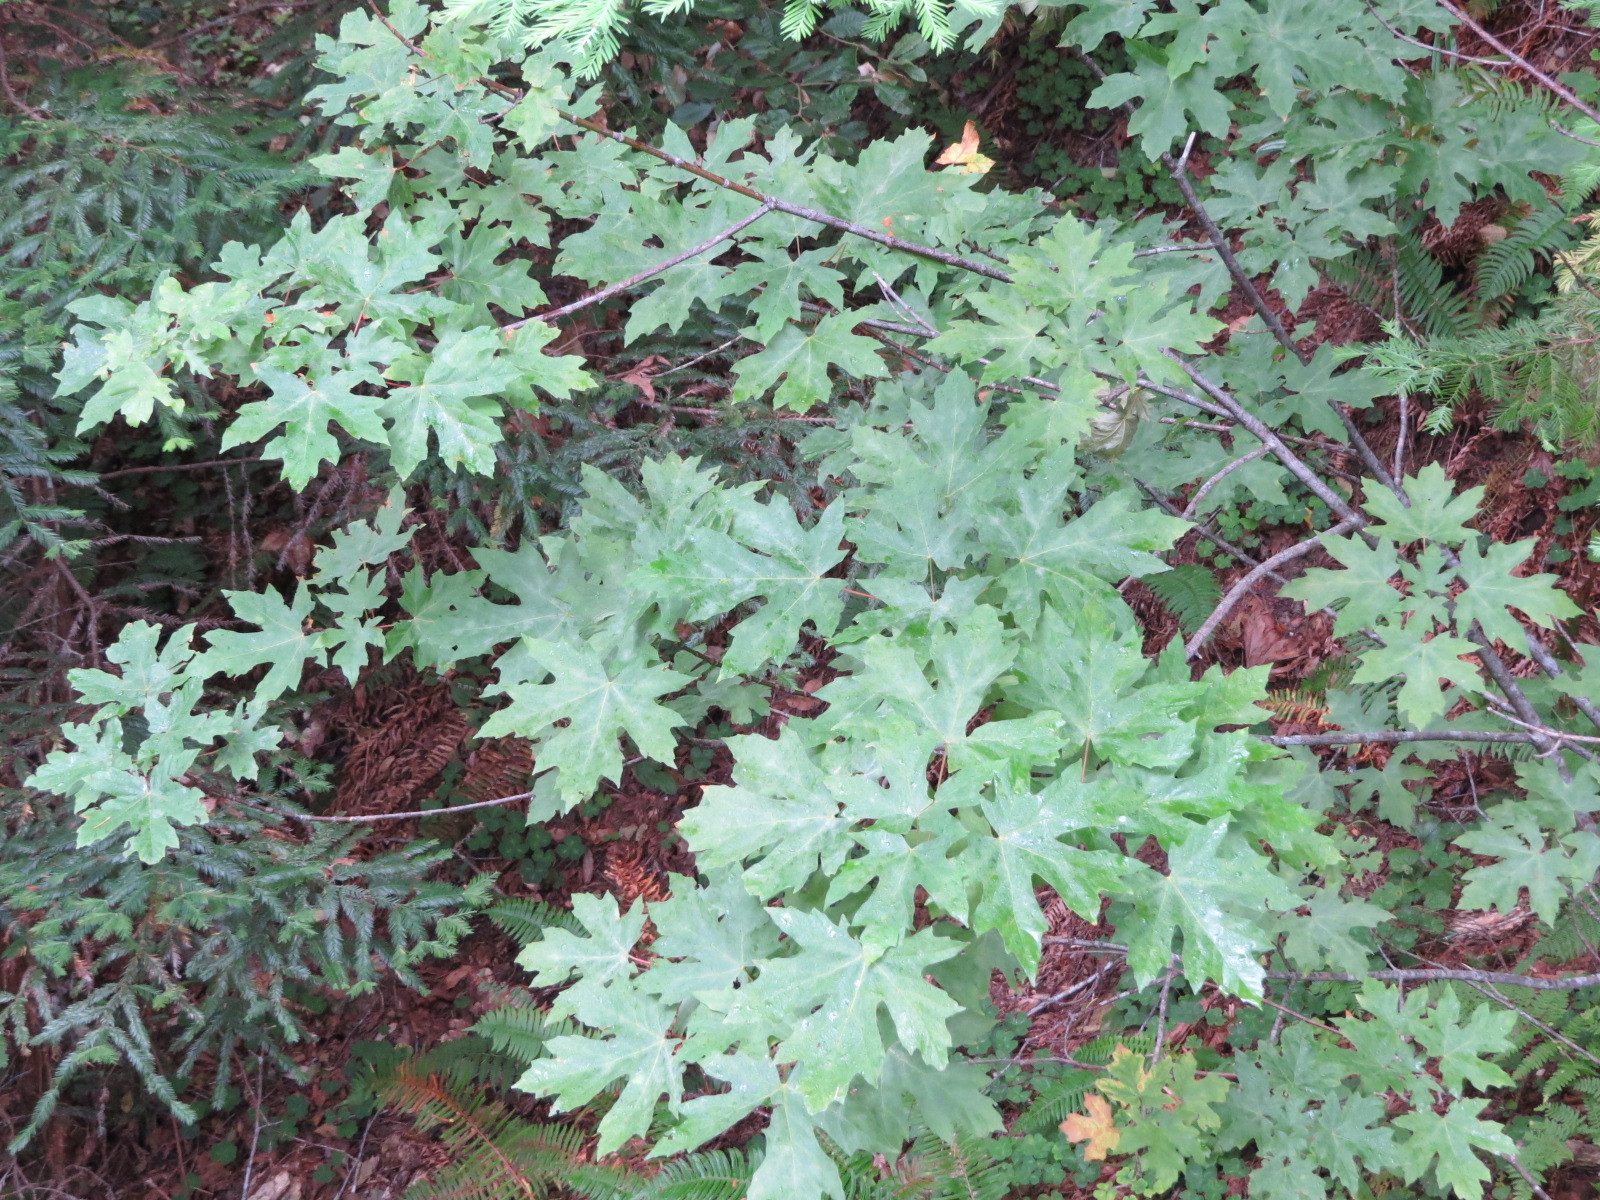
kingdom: Plantae
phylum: Tracheophyta
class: Magnoliopsida
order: Sapindales
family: Sapindaceae
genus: Acer
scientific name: Acer macrophyllum
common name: Oregon maple
